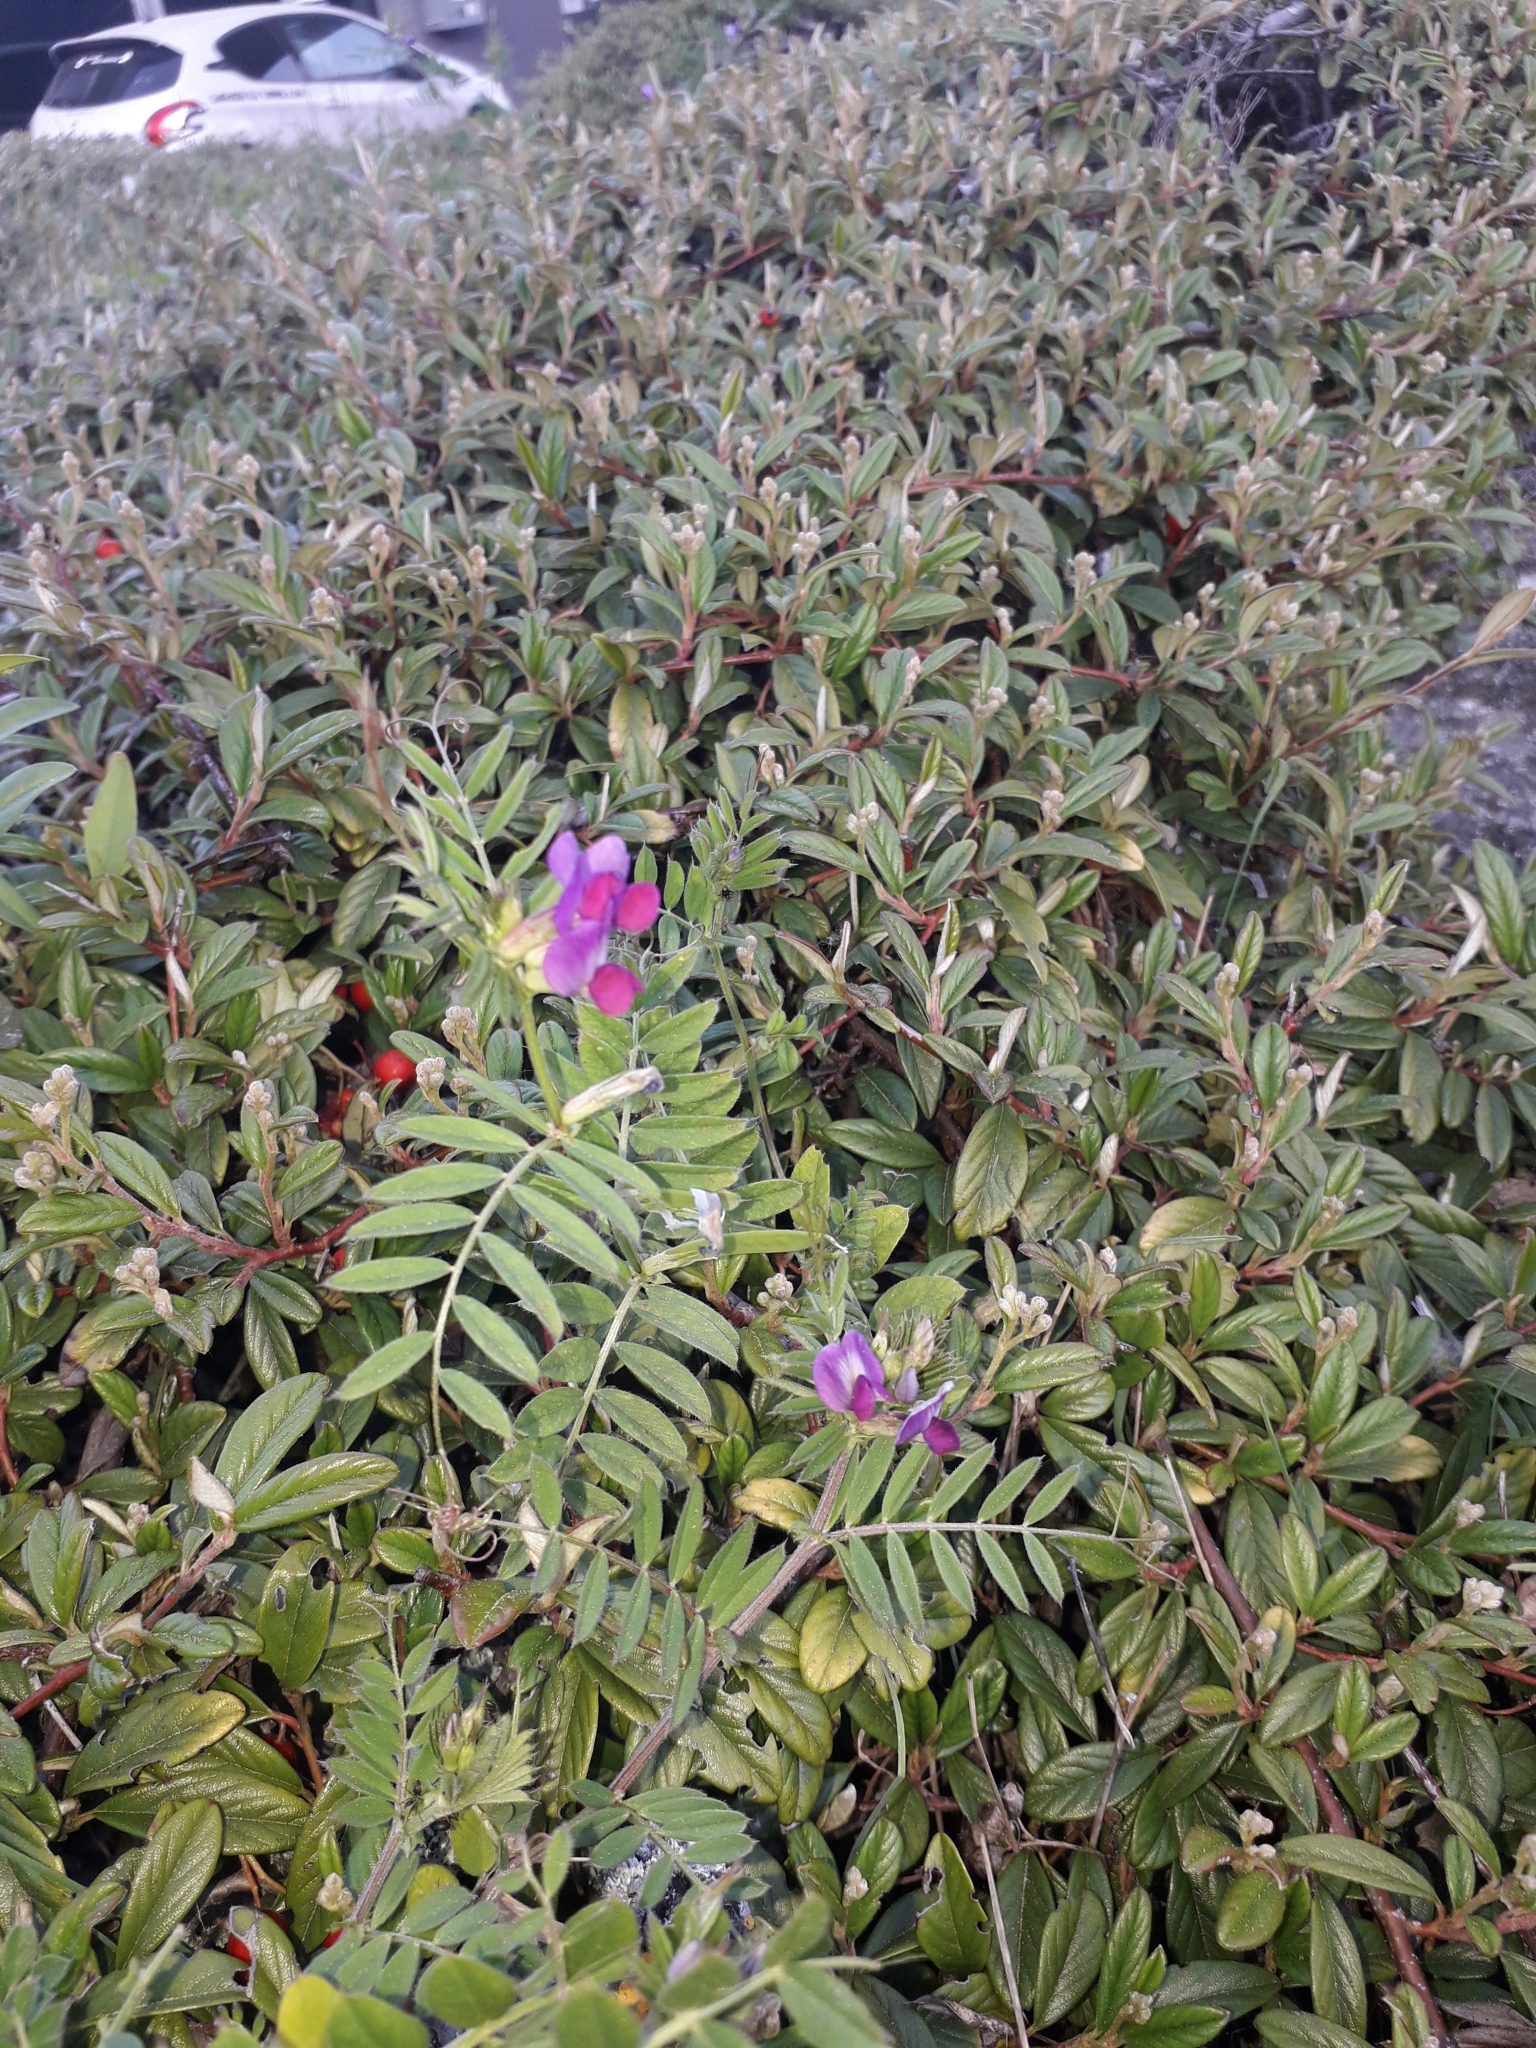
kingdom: Plantae
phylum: Tracheophyta
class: Magnoliopsida
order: Fabales
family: Fabaceae
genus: Vicia
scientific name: Vicia sativa
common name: Garden vetch
